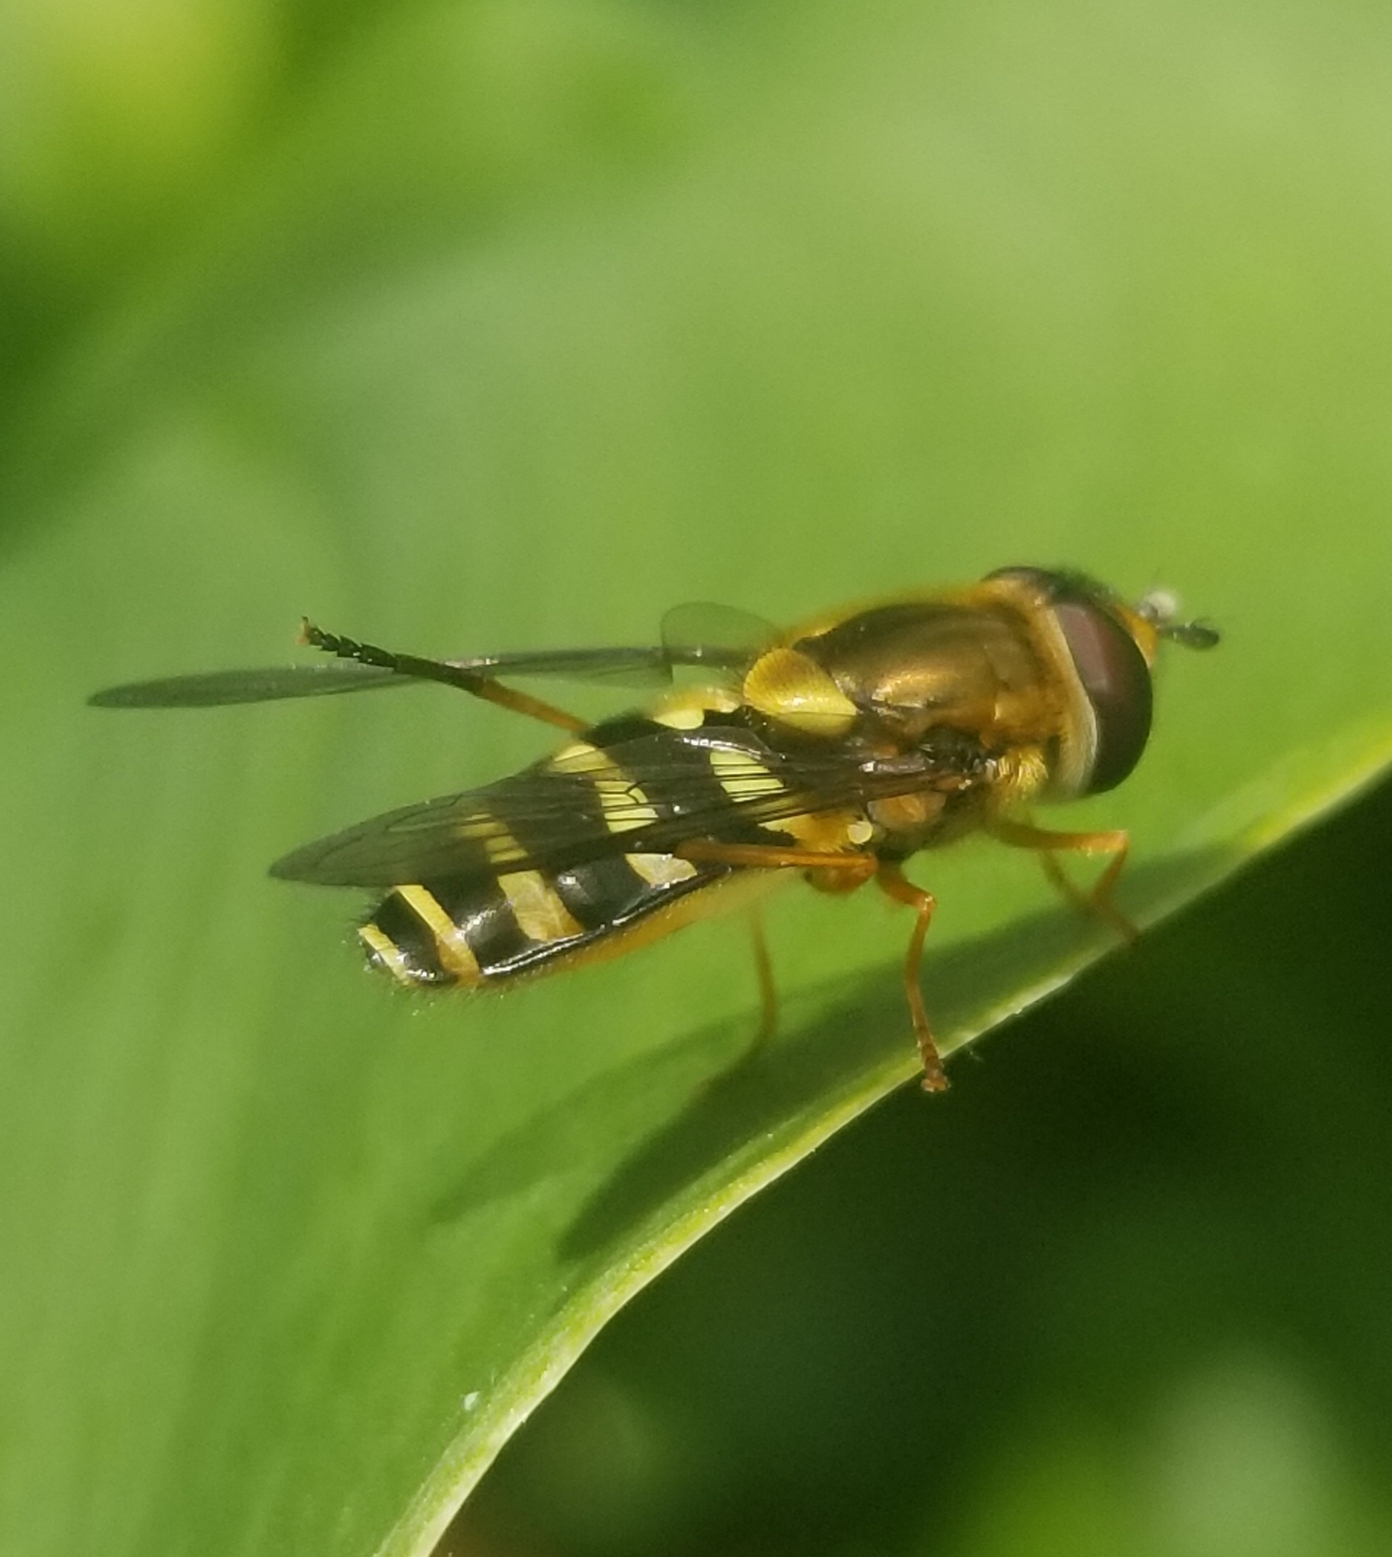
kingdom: Animalia
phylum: Arthropoda
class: Insecta
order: Diptera
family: Syrphidae
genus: Syrphus
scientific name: Syrphus opinator
